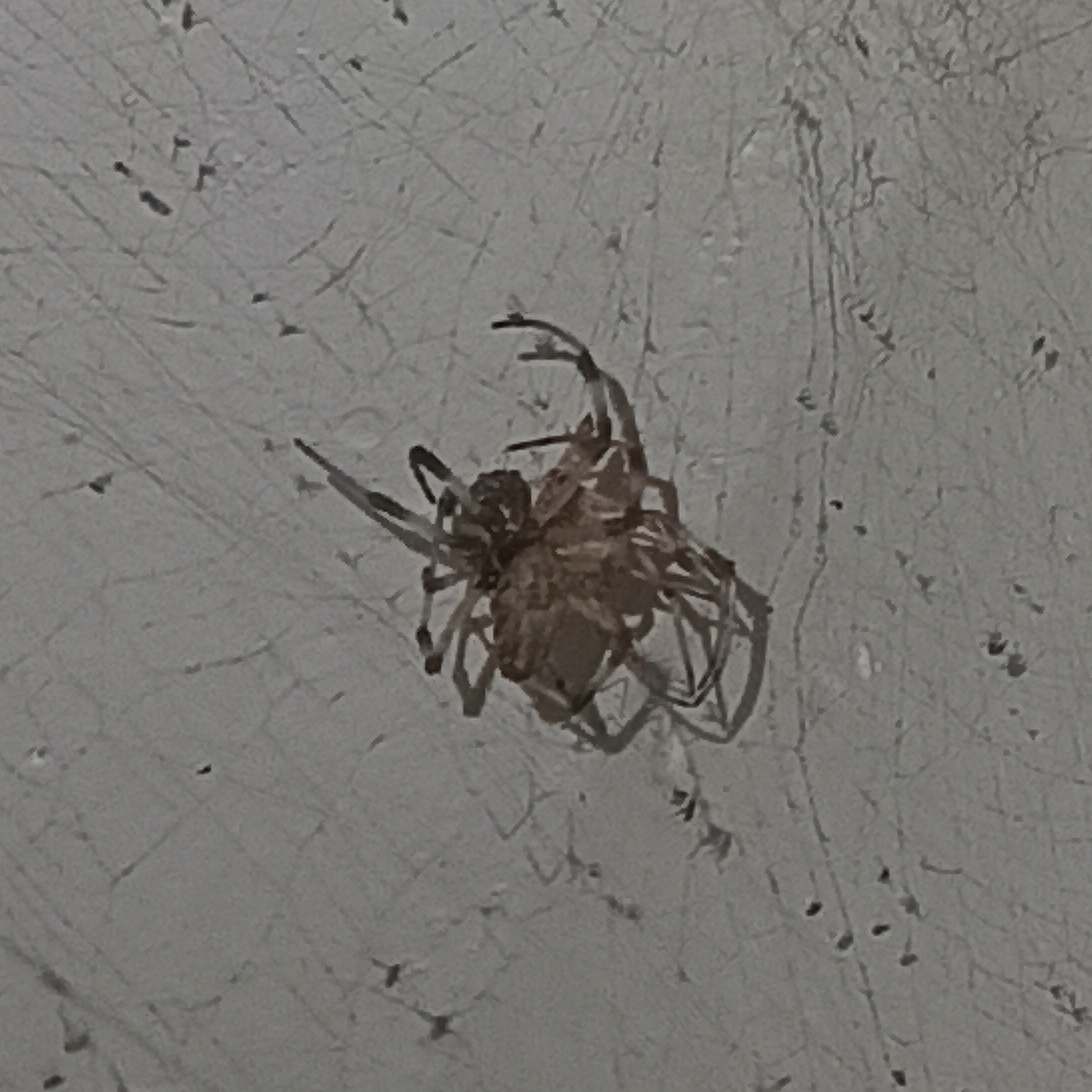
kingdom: Animalia
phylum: Arthropoda
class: Arachnida
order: Araneae
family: Araneidae
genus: Nephilingis
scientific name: Nephilingis cruentata
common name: African hermit spider
